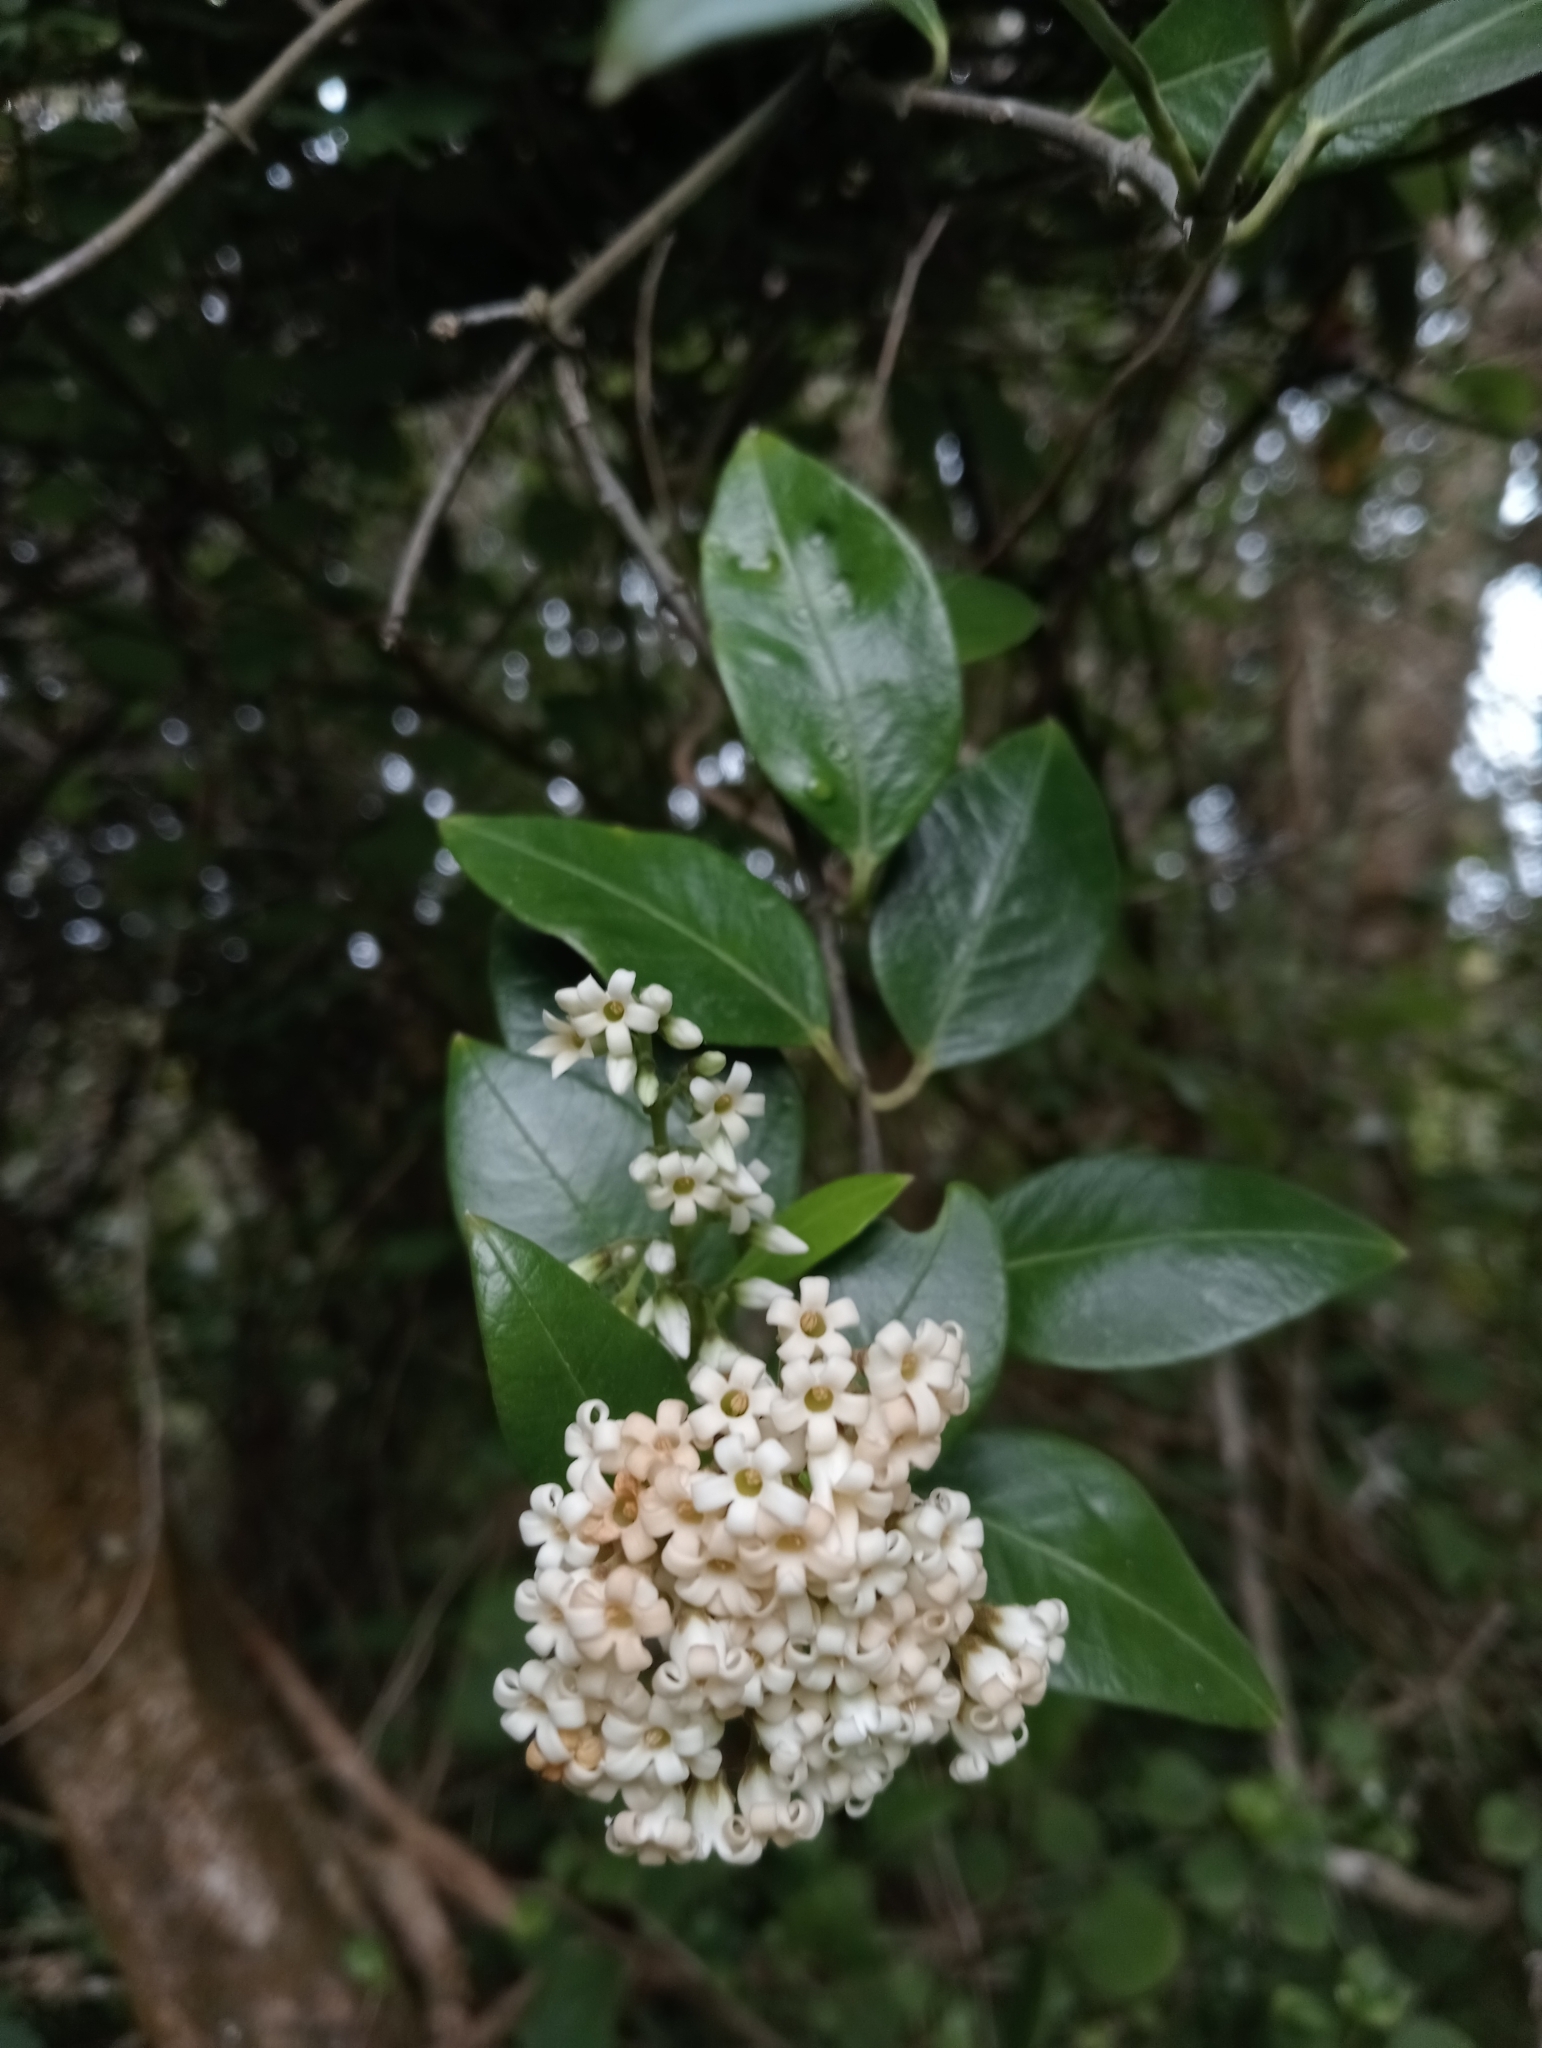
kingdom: Plantae
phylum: Tracheophyta
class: Magnoliopsida
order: Gentianales
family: Apocynaceae
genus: Parsonsia
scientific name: Parsonsia heterophylla
